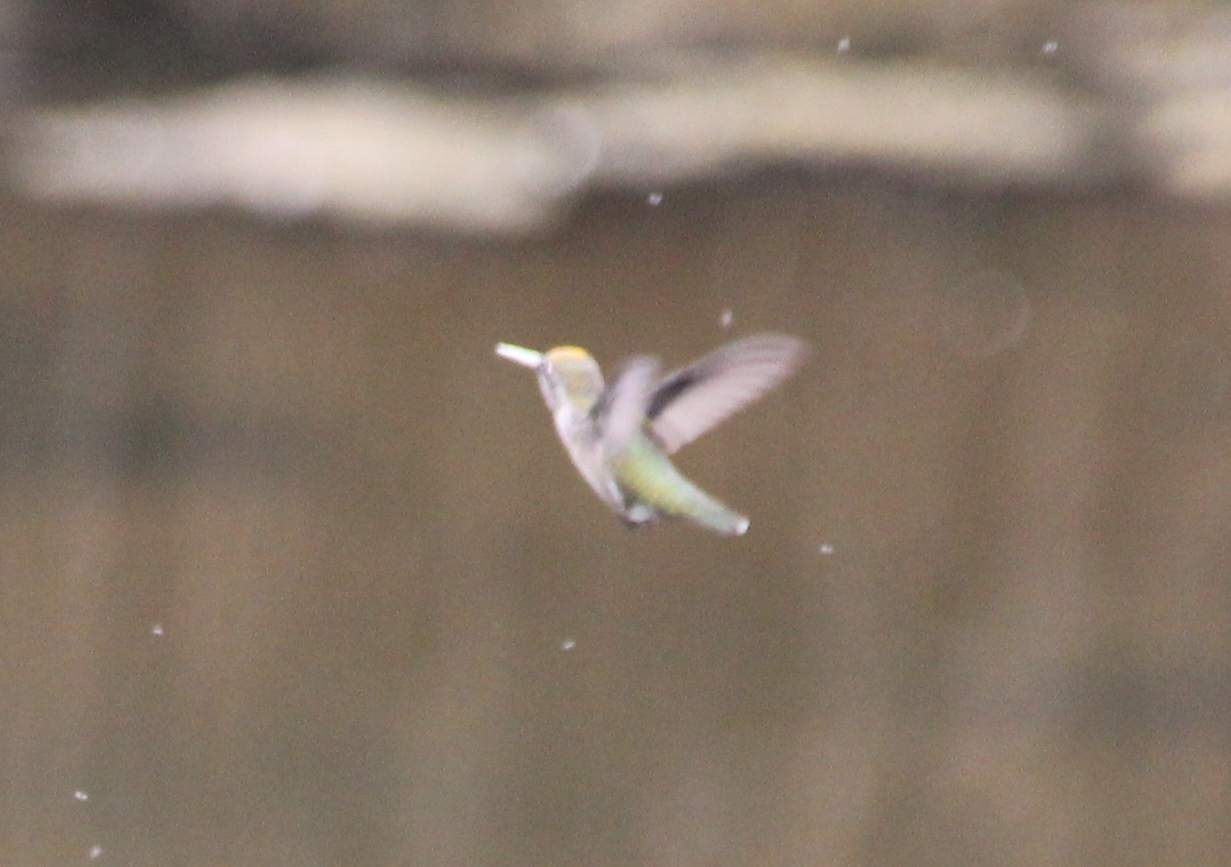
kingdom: Animalia
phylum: Chordata
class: Aves
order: Apodiformes
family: Trochilidae
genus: Calypte
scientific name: Calypte anna
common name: Anna's hummingbird
